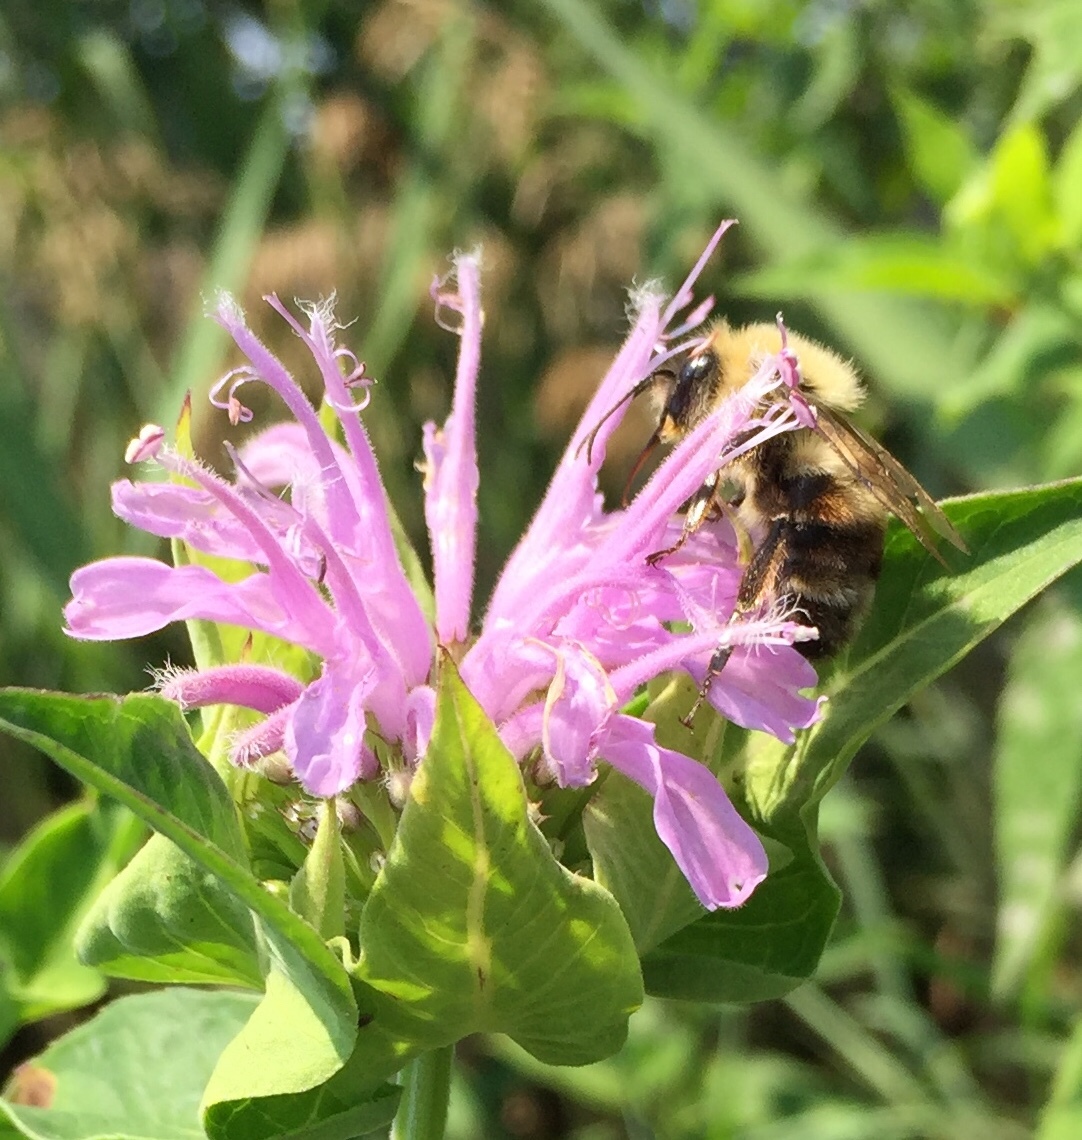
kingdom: Animalia
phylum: Arthropoda
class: Insecta
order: Hymenoptera
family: Apidae
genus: Bombus
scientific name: Bombus bimaculatus
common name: Two-spotted bumble bee
